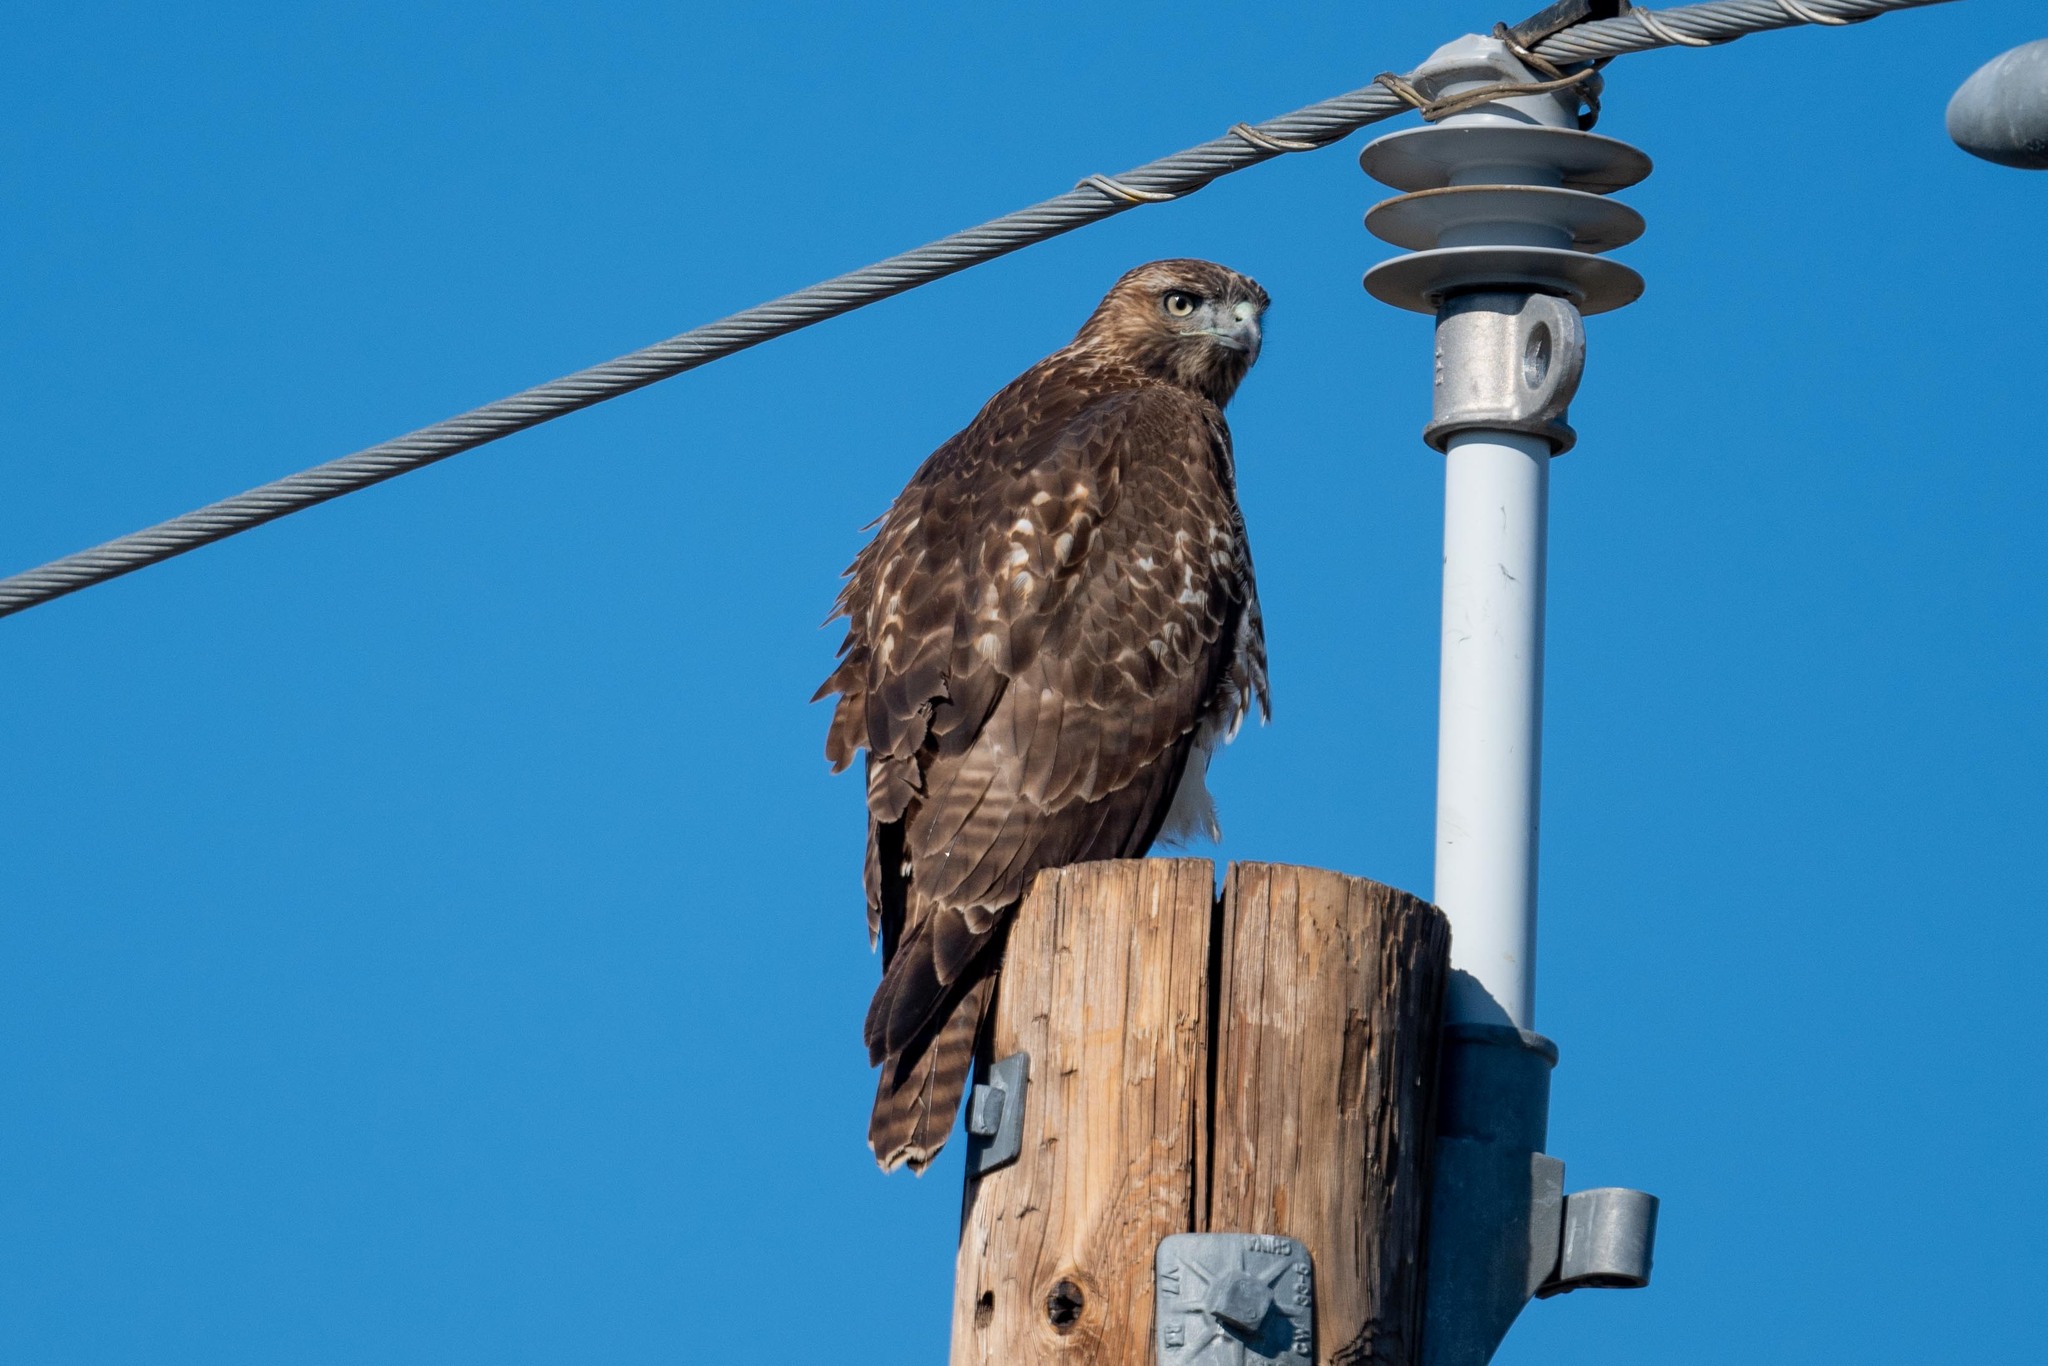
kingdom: Animalia
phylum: Chordata
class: Aves
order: Accipitriformes
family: Accipitridae
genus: Buteo
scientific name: Buteo jamaicensis
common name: Red-tailed hawk
